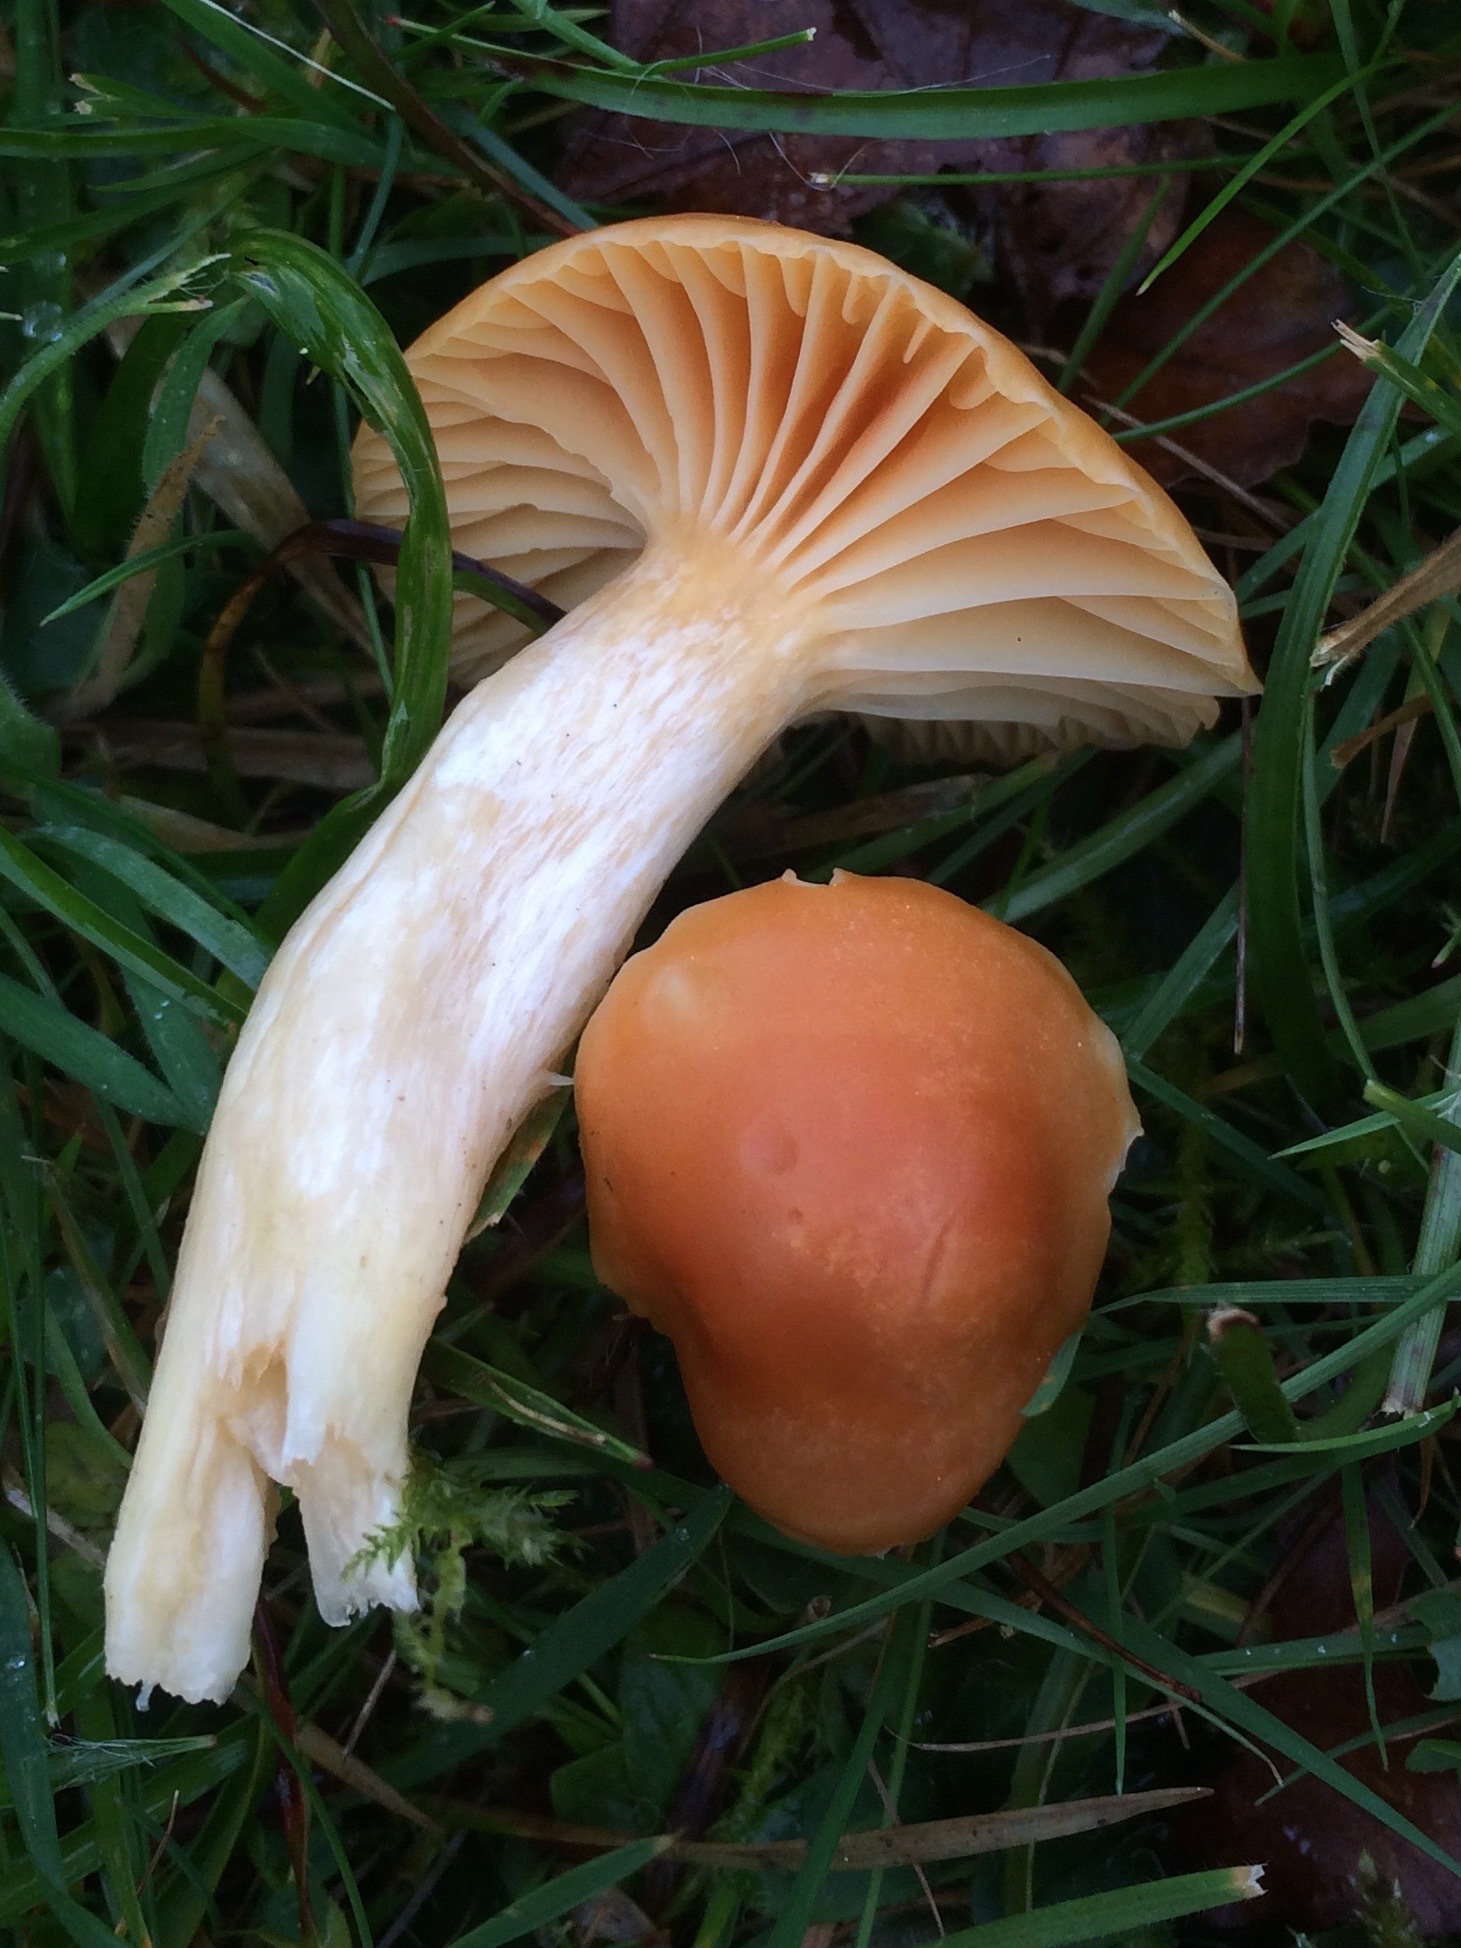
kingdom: Fungi
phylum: Basidiomycota
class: Agaricomycetes
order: Agaricales
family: Hygrophoraceae
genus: Cuphophyllus
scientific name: Cuphophyllus pratensis
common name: Meadow waxcap
